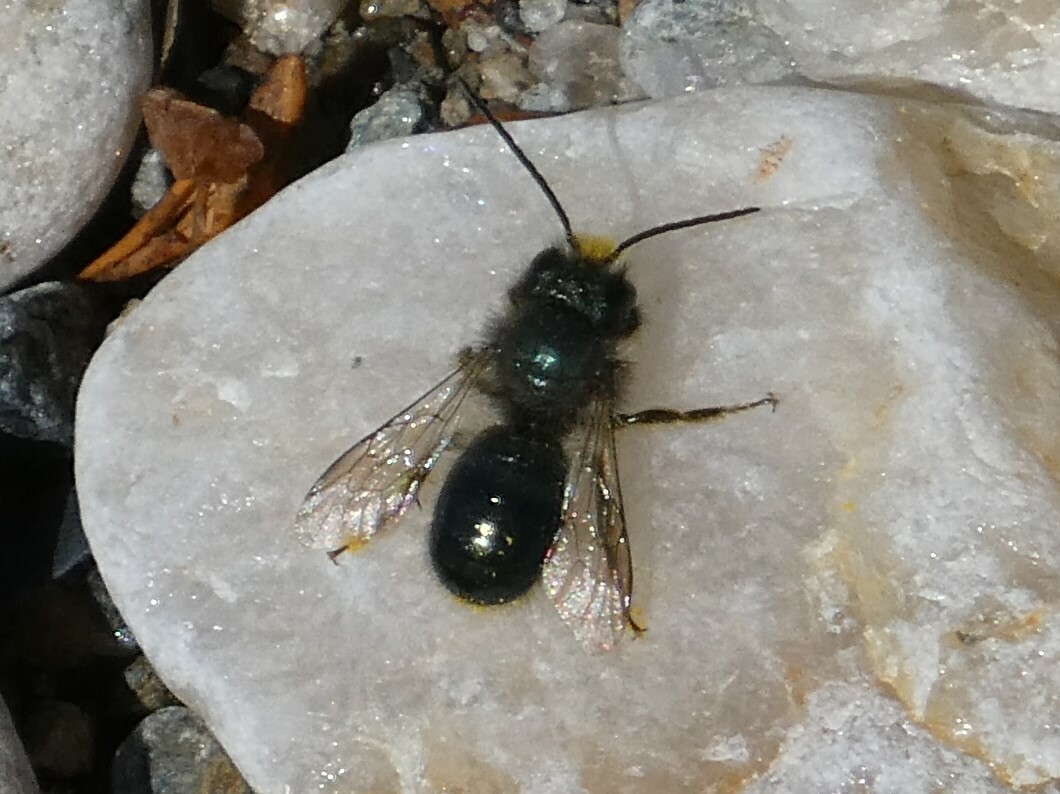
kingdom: Animalia
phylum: Arthropoda
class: Insecta
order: Hymenoptera
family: Megachilidae
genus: Osmia
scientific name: Osmia lignaria
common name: Blue orchard bee
